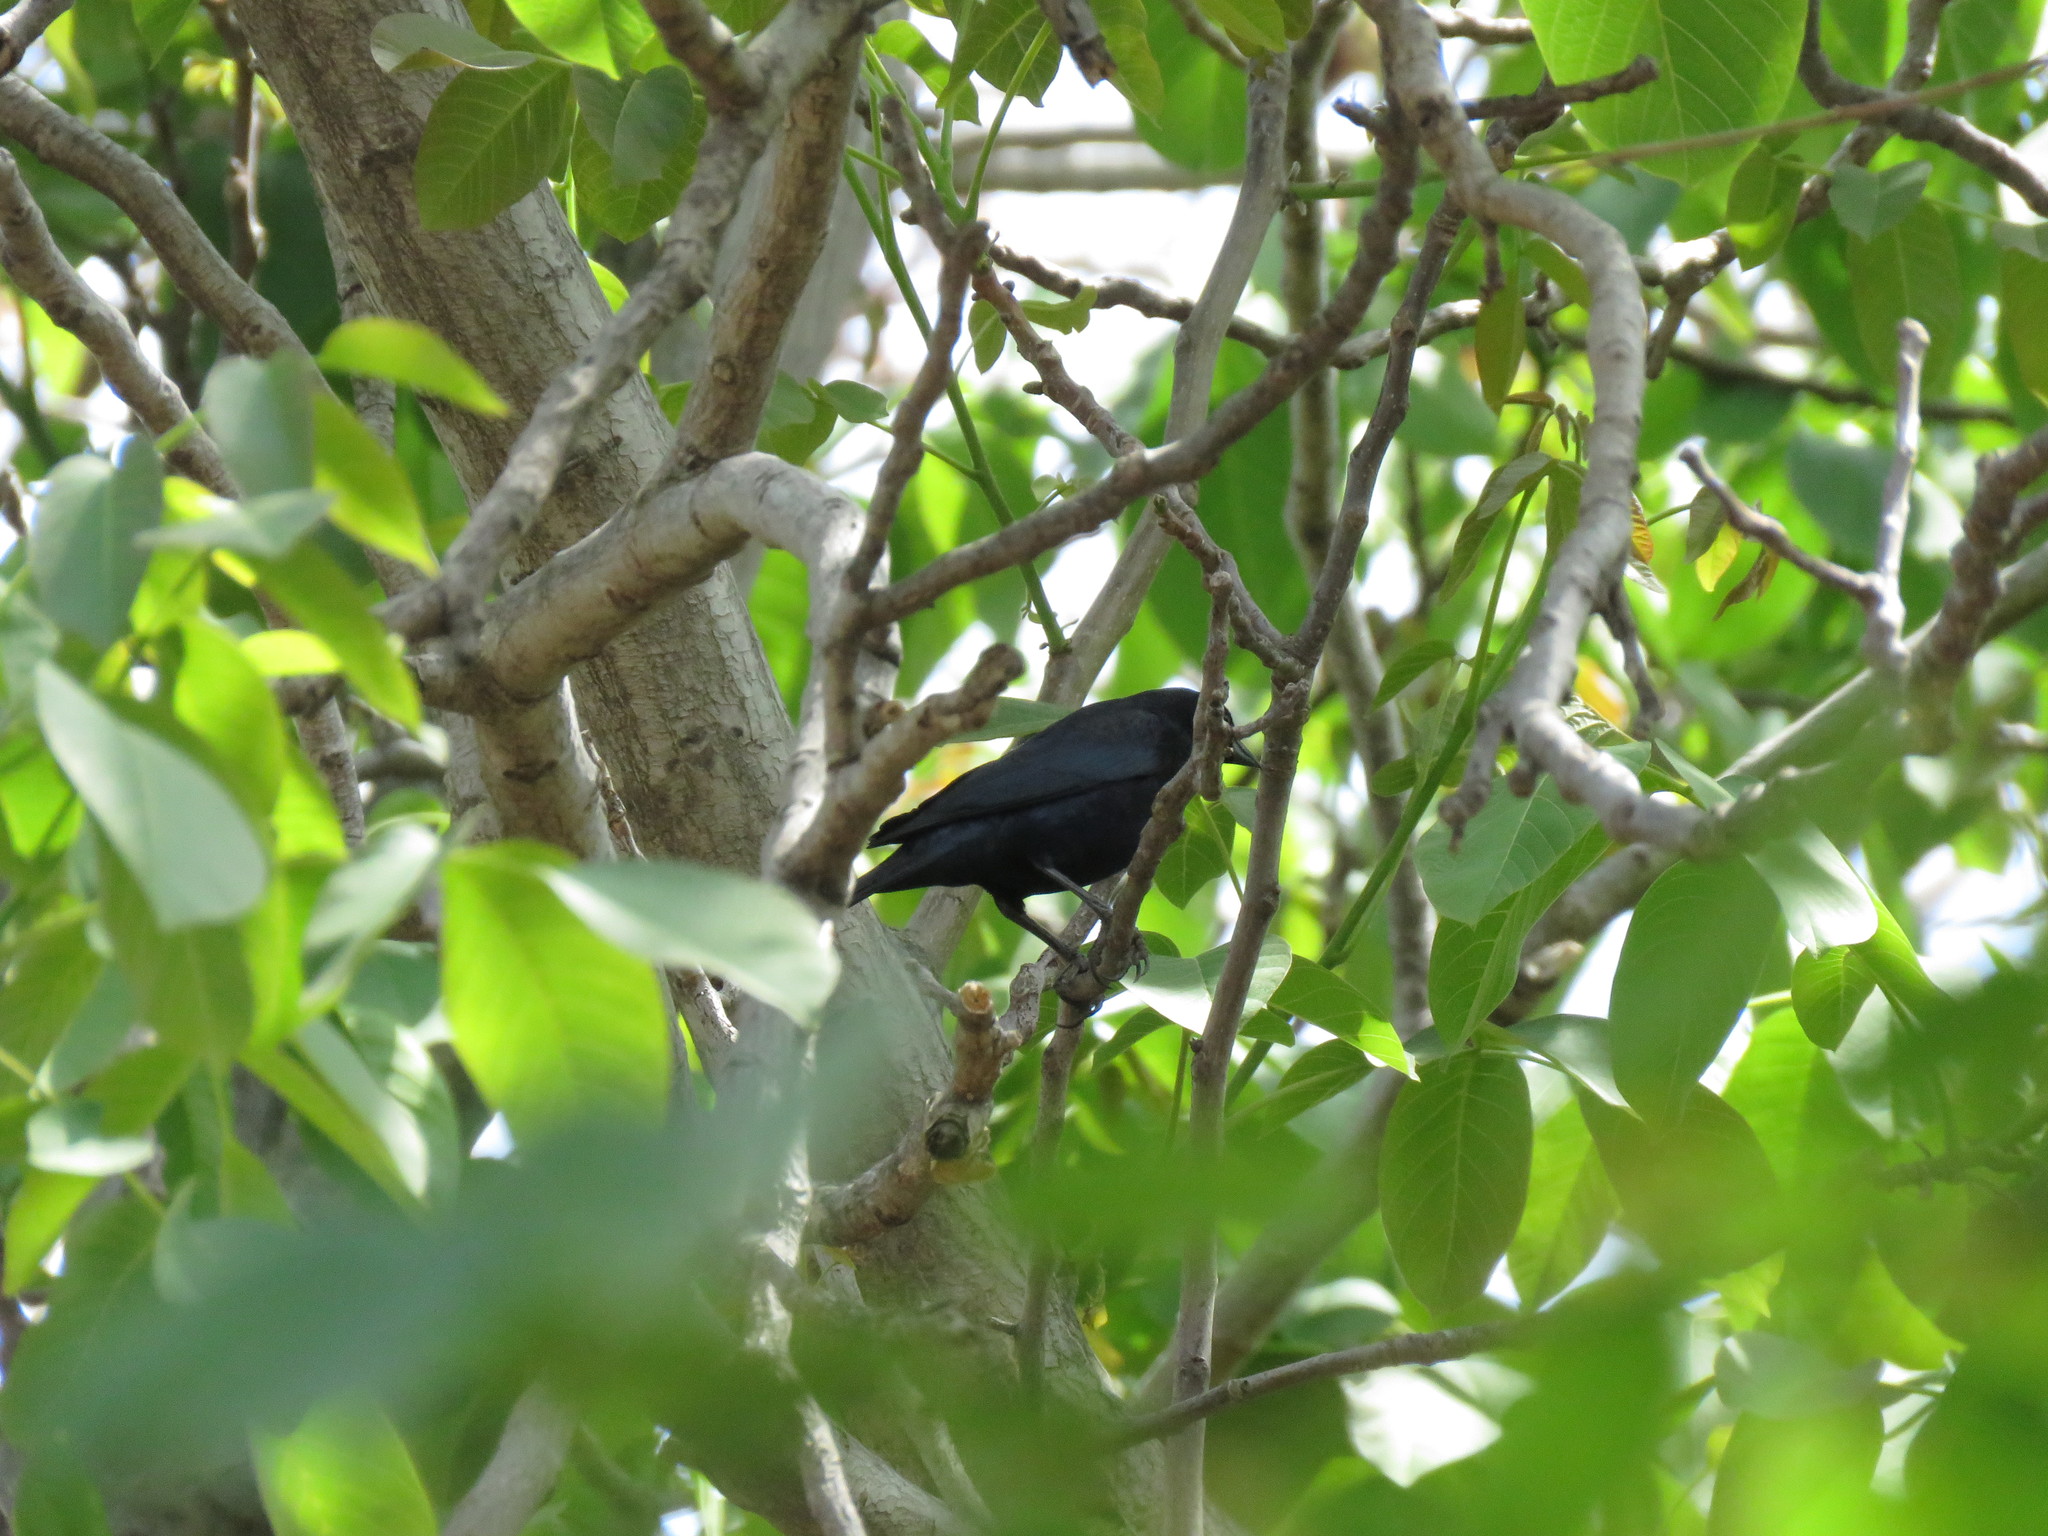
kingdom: Animalia
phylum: Chordata
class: Aves
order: Passeriformes
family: Icteridae
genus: Molothrus
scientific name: Molothrus bonariensis
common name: Shiny cowbird
